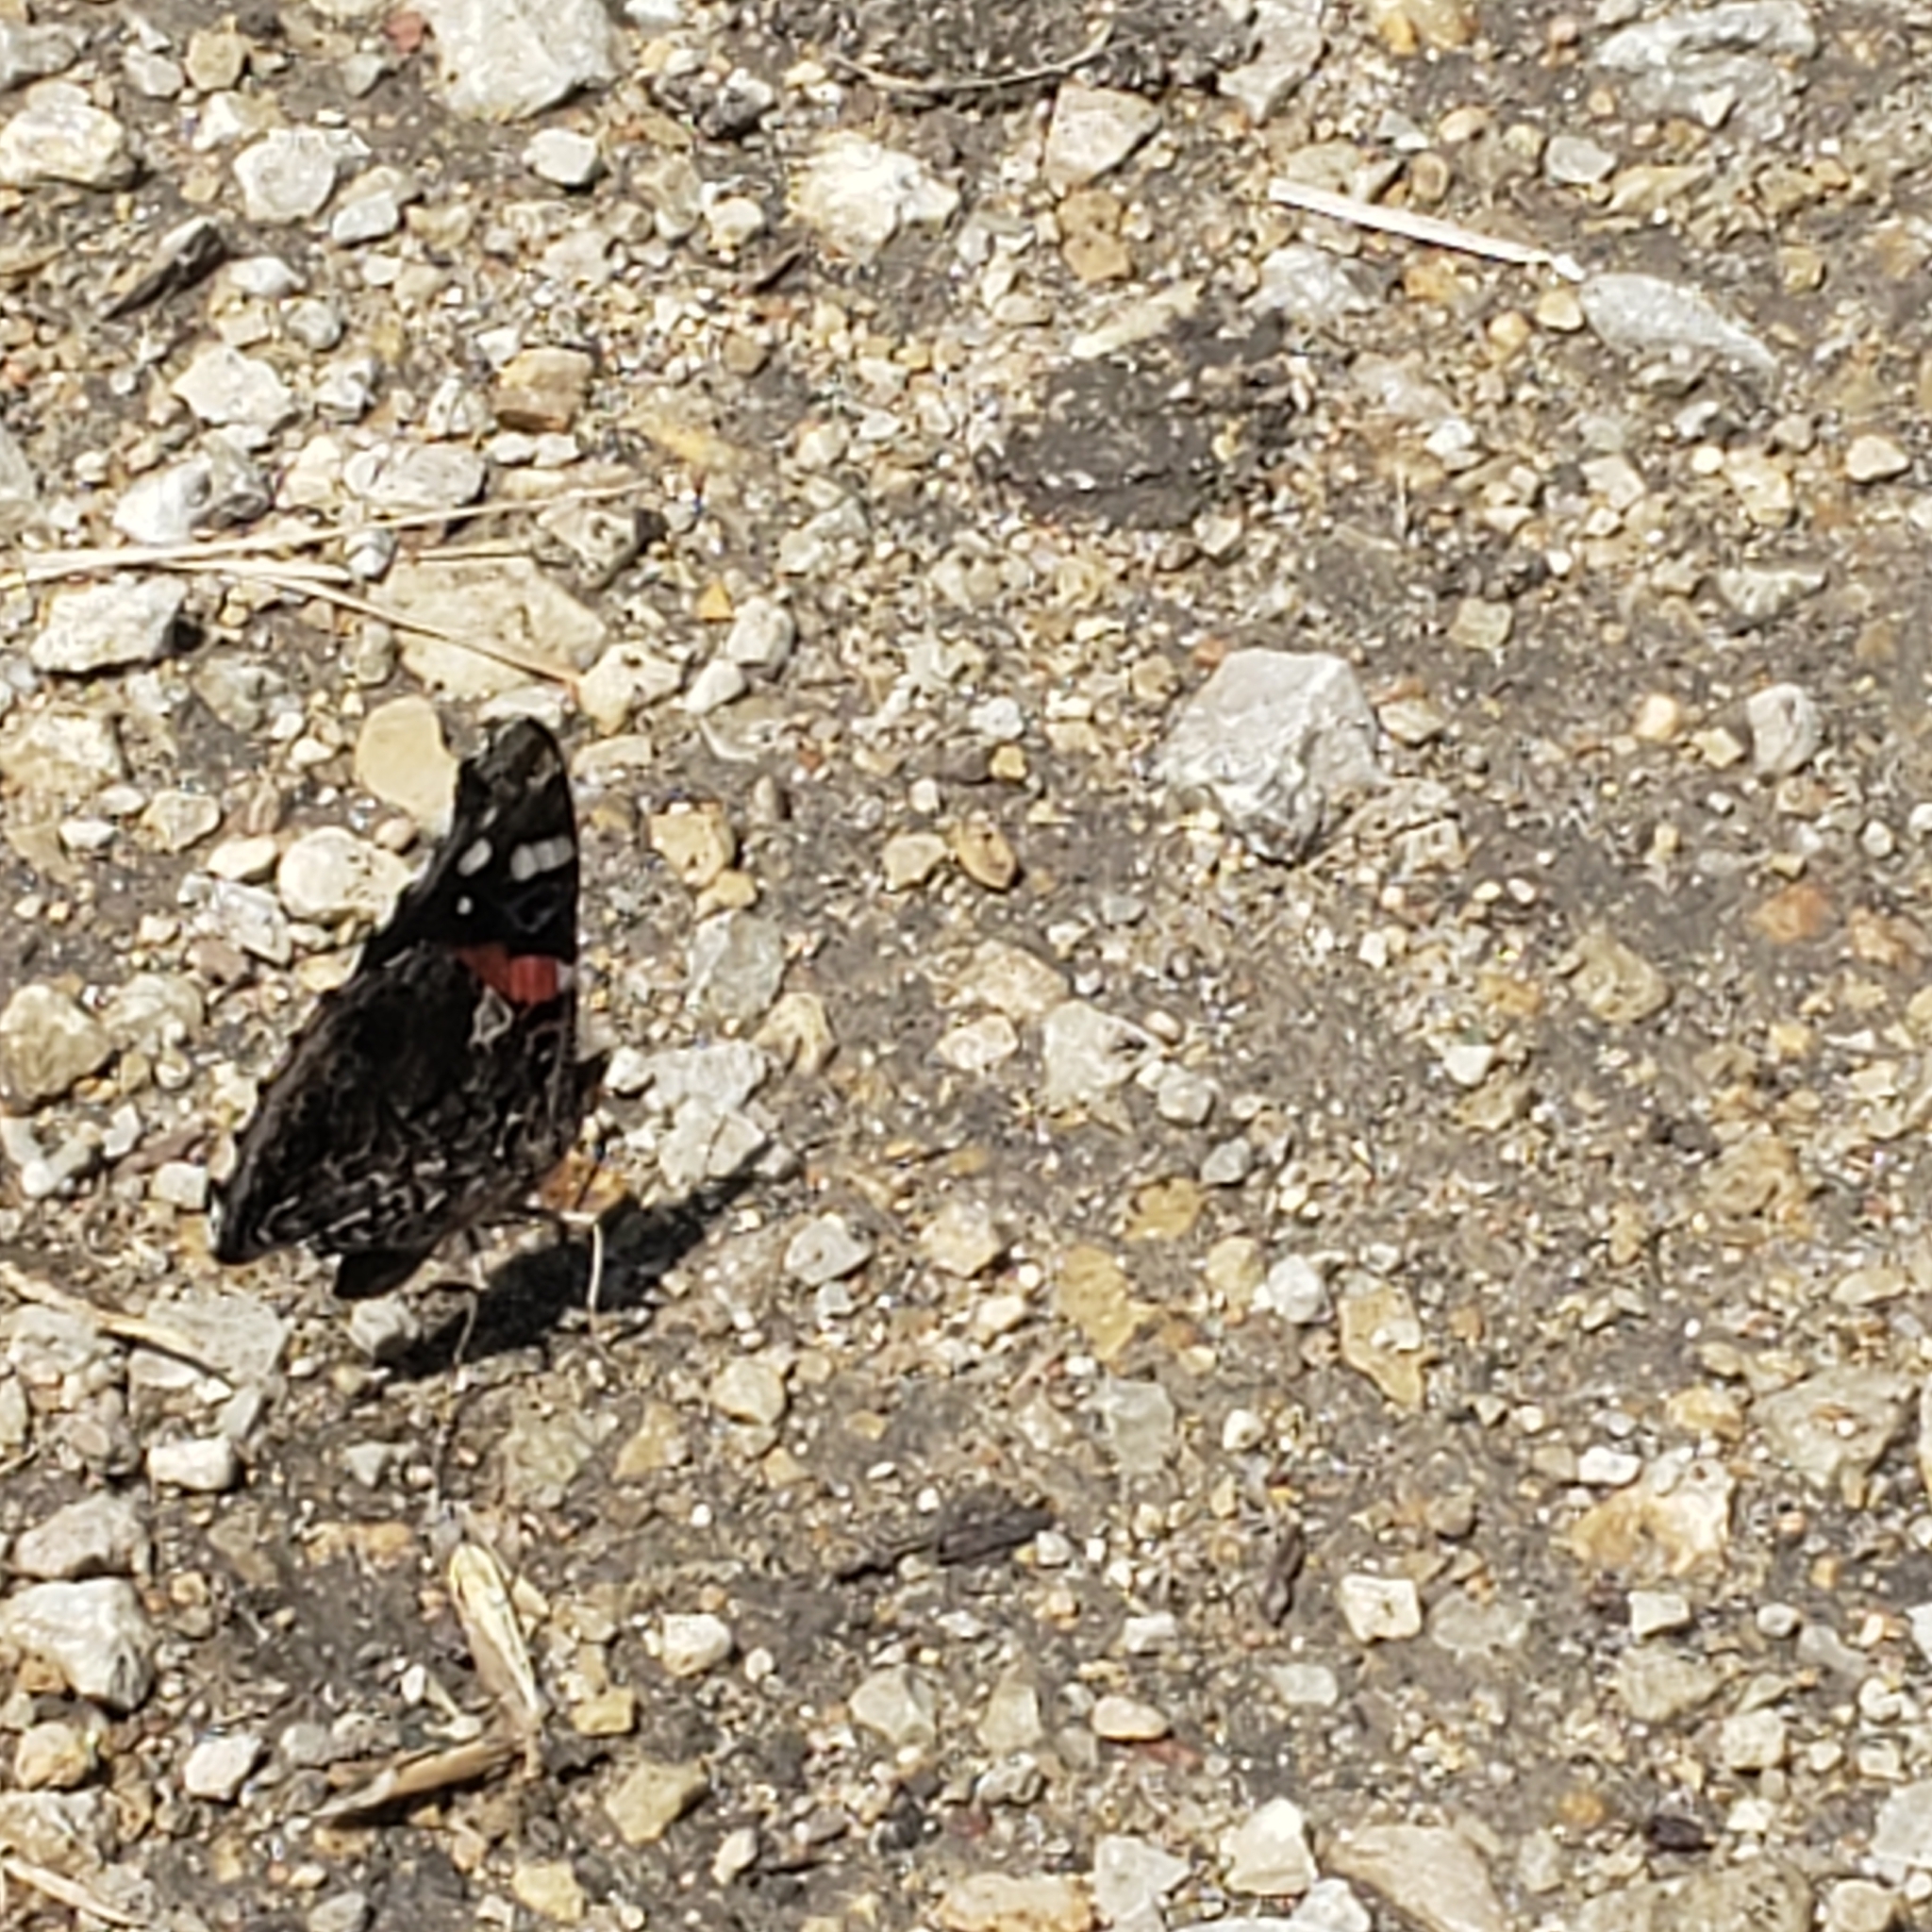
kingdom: Animalia
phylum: Arthropoda
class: Insecta
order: Lepidoptera
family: Nymphalidae
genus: Vanessa
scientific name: Vanessa atalanta
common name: Red admiral
